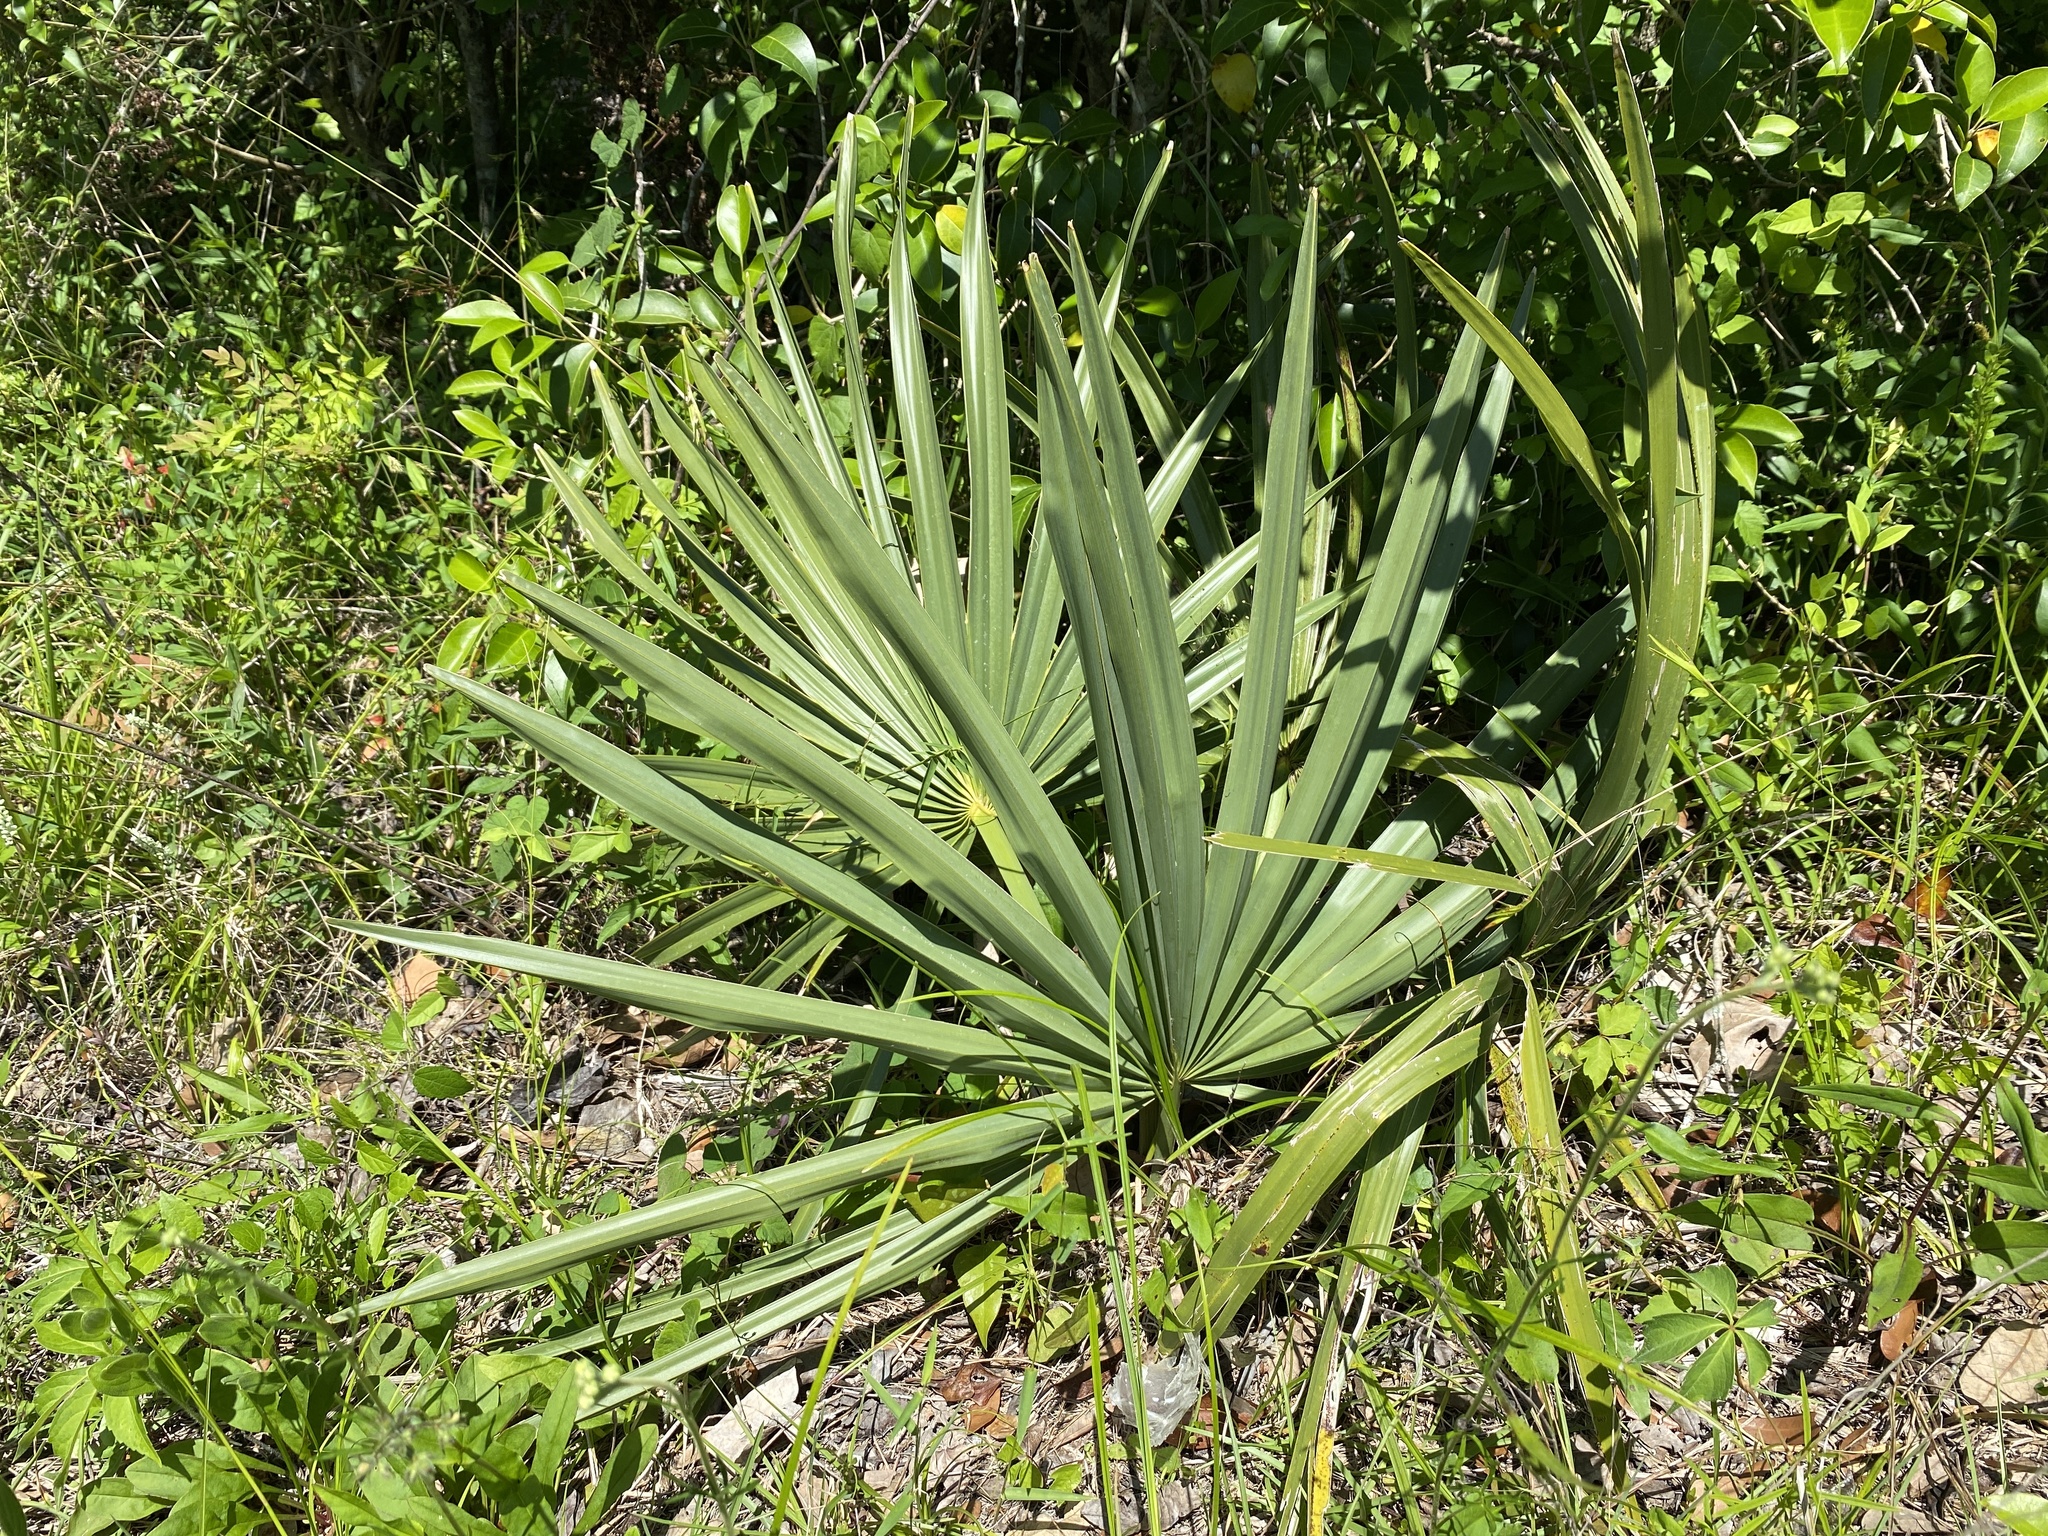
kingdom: Plantae
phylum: Tracheophyta
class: Liliopsida
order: Arecales
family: Arecaceae
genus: Sabal
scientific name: Sabal minor
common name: Dwarf palmetto
